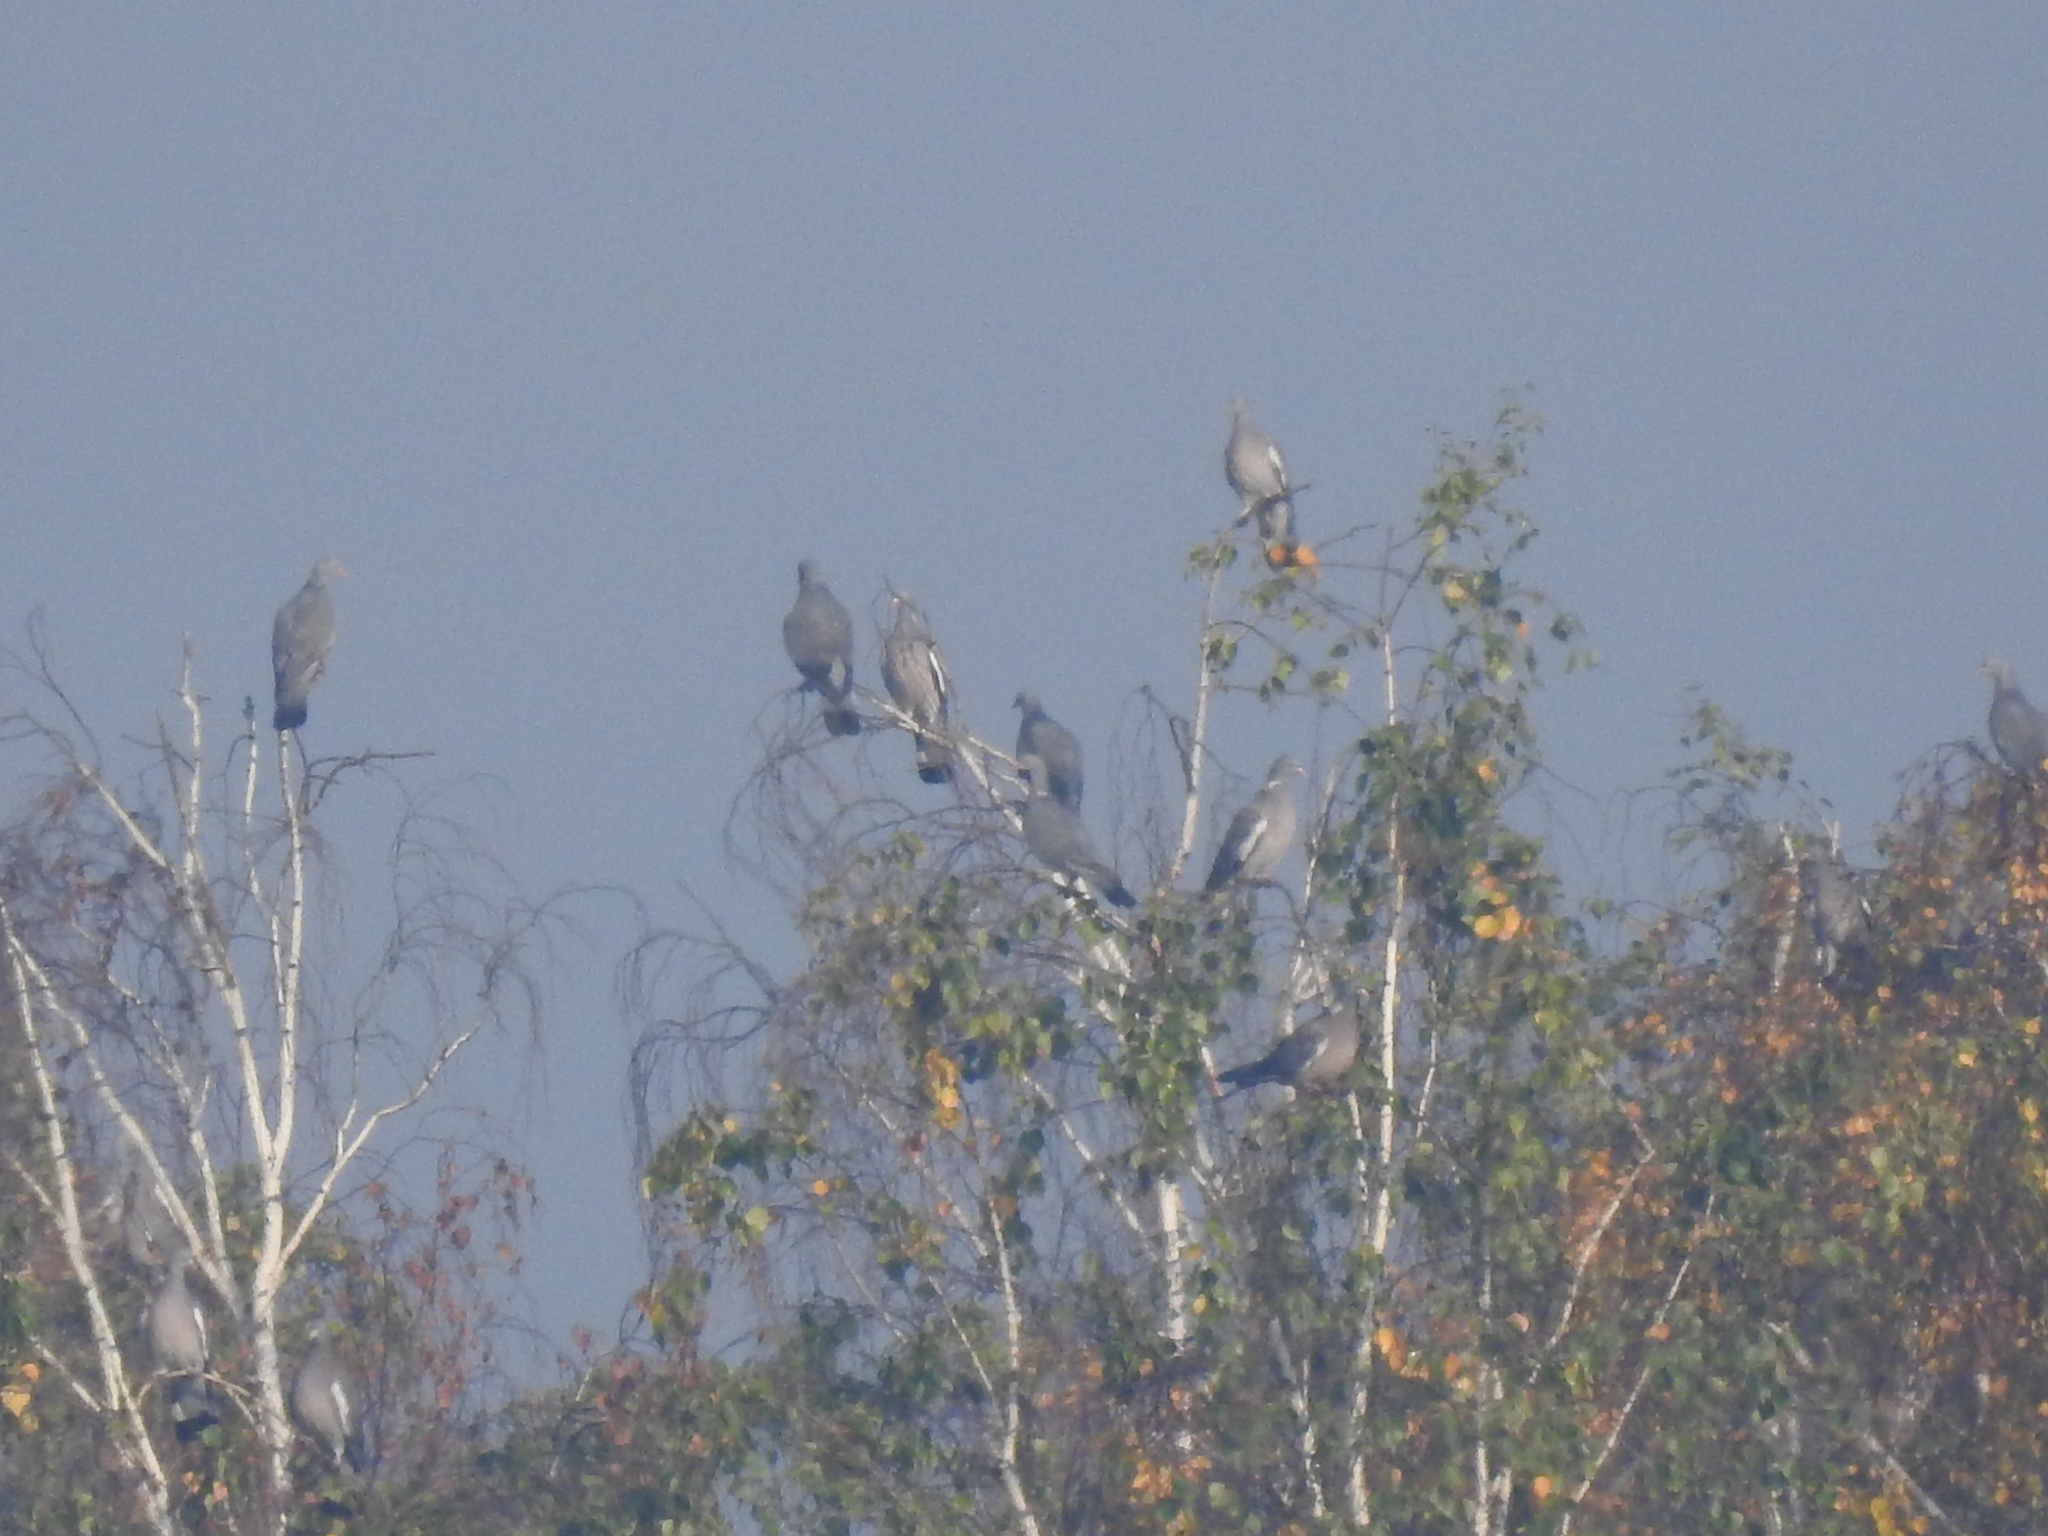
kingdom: Animalia
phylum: Chordata
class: Aves
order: Columbiformes
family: Columbidae
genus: Columba
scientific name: Columba palumbus
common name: Common wood pigeon
